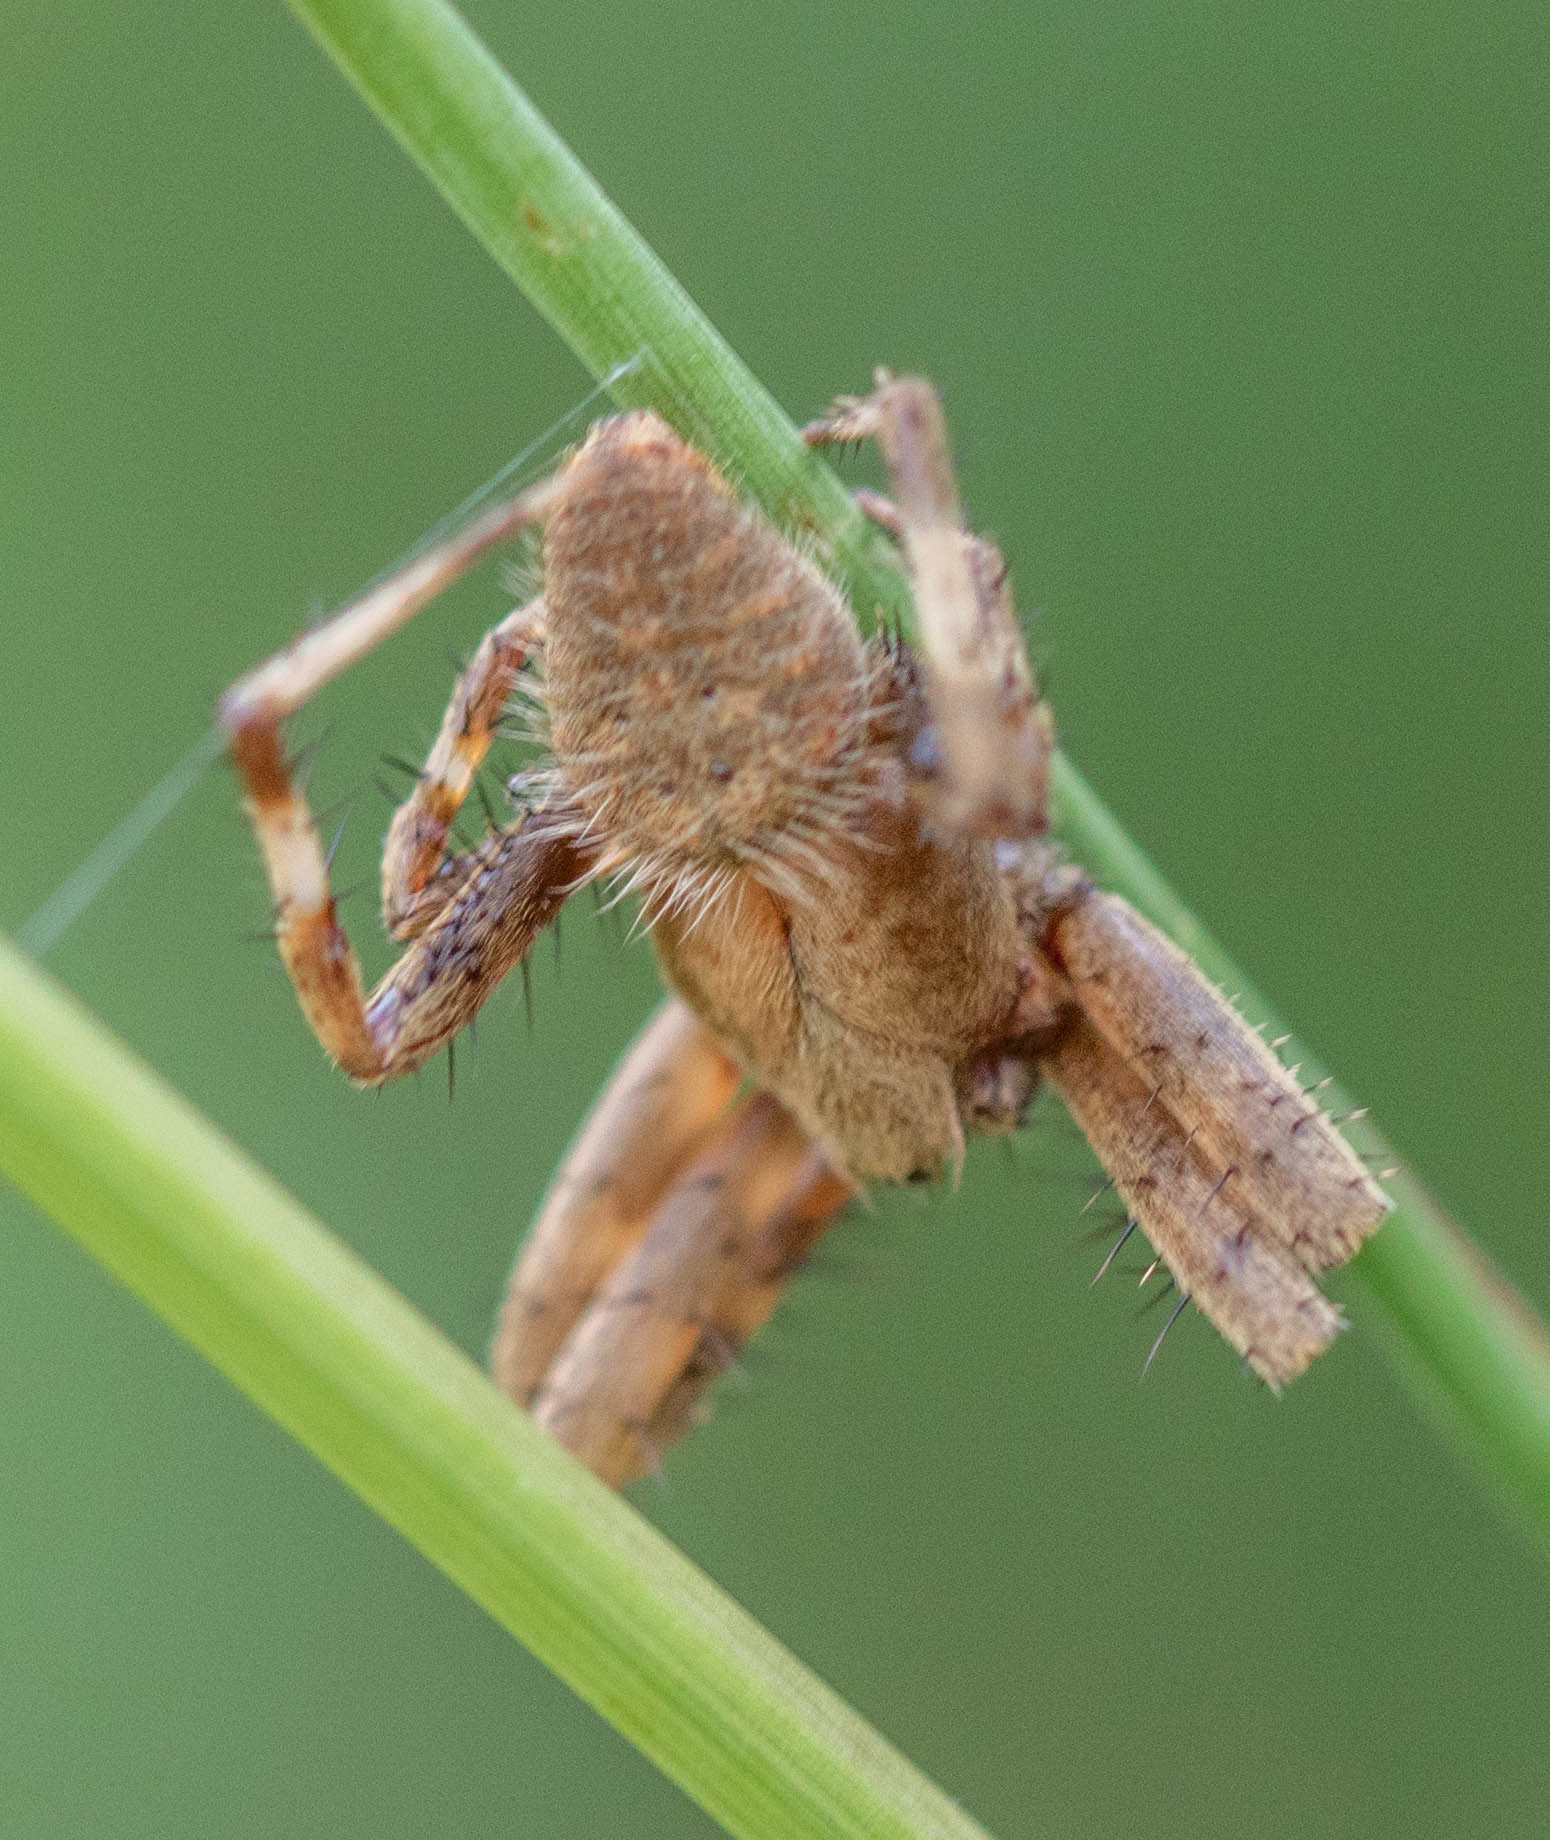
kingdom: Animalia
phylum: Arthropoda
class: Arachnida
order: Araneae
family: Araneidae
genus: Neoscona
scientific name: Neoscona crucifera
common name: Spotted orbweaver
